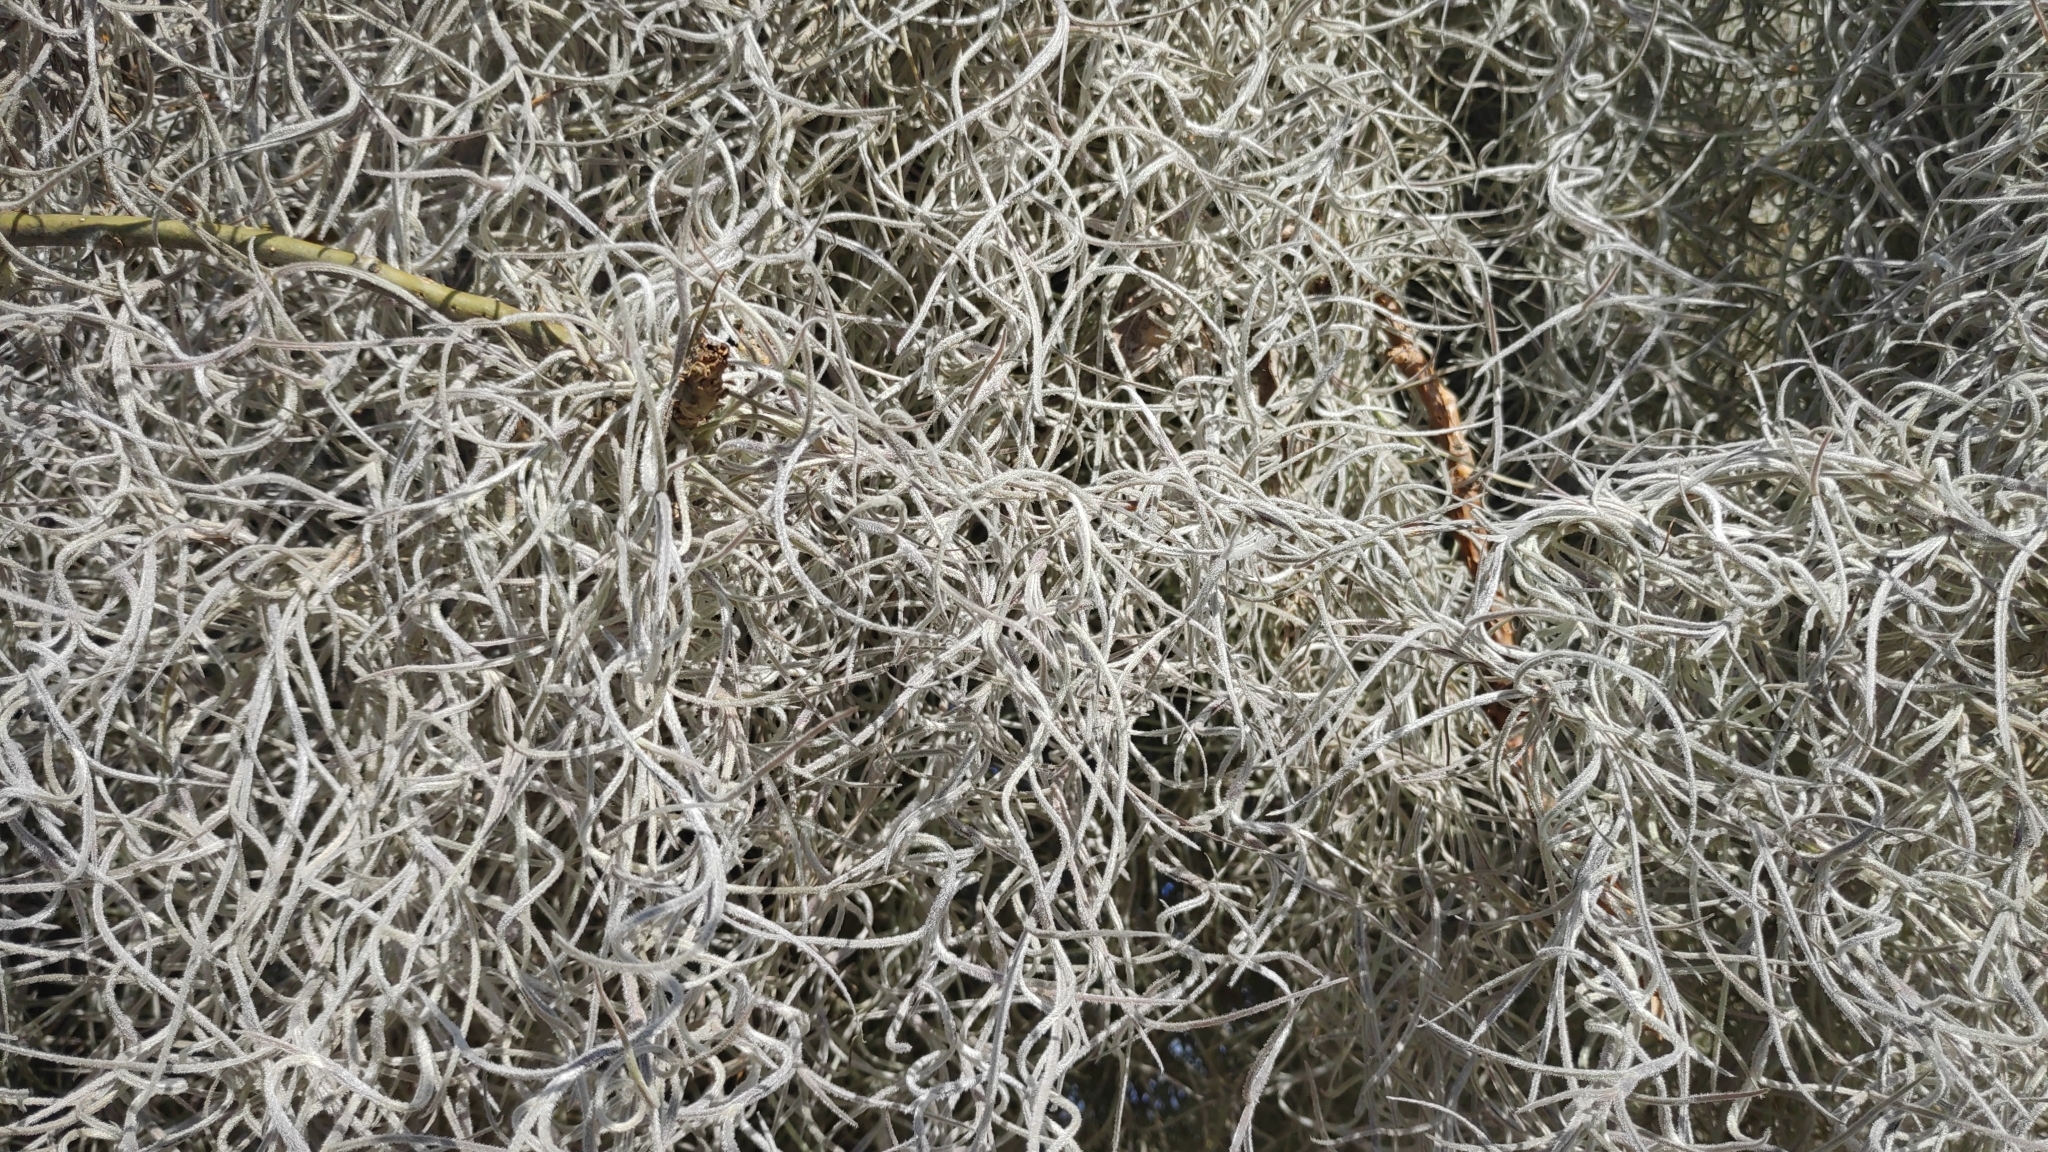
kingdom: Plantae
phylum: Tracheophyta
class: Liliopsida
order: Poales
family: Bromeliaceae
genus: Tillandsia
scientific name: Tillandsia usneoides
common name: Spanish moss
